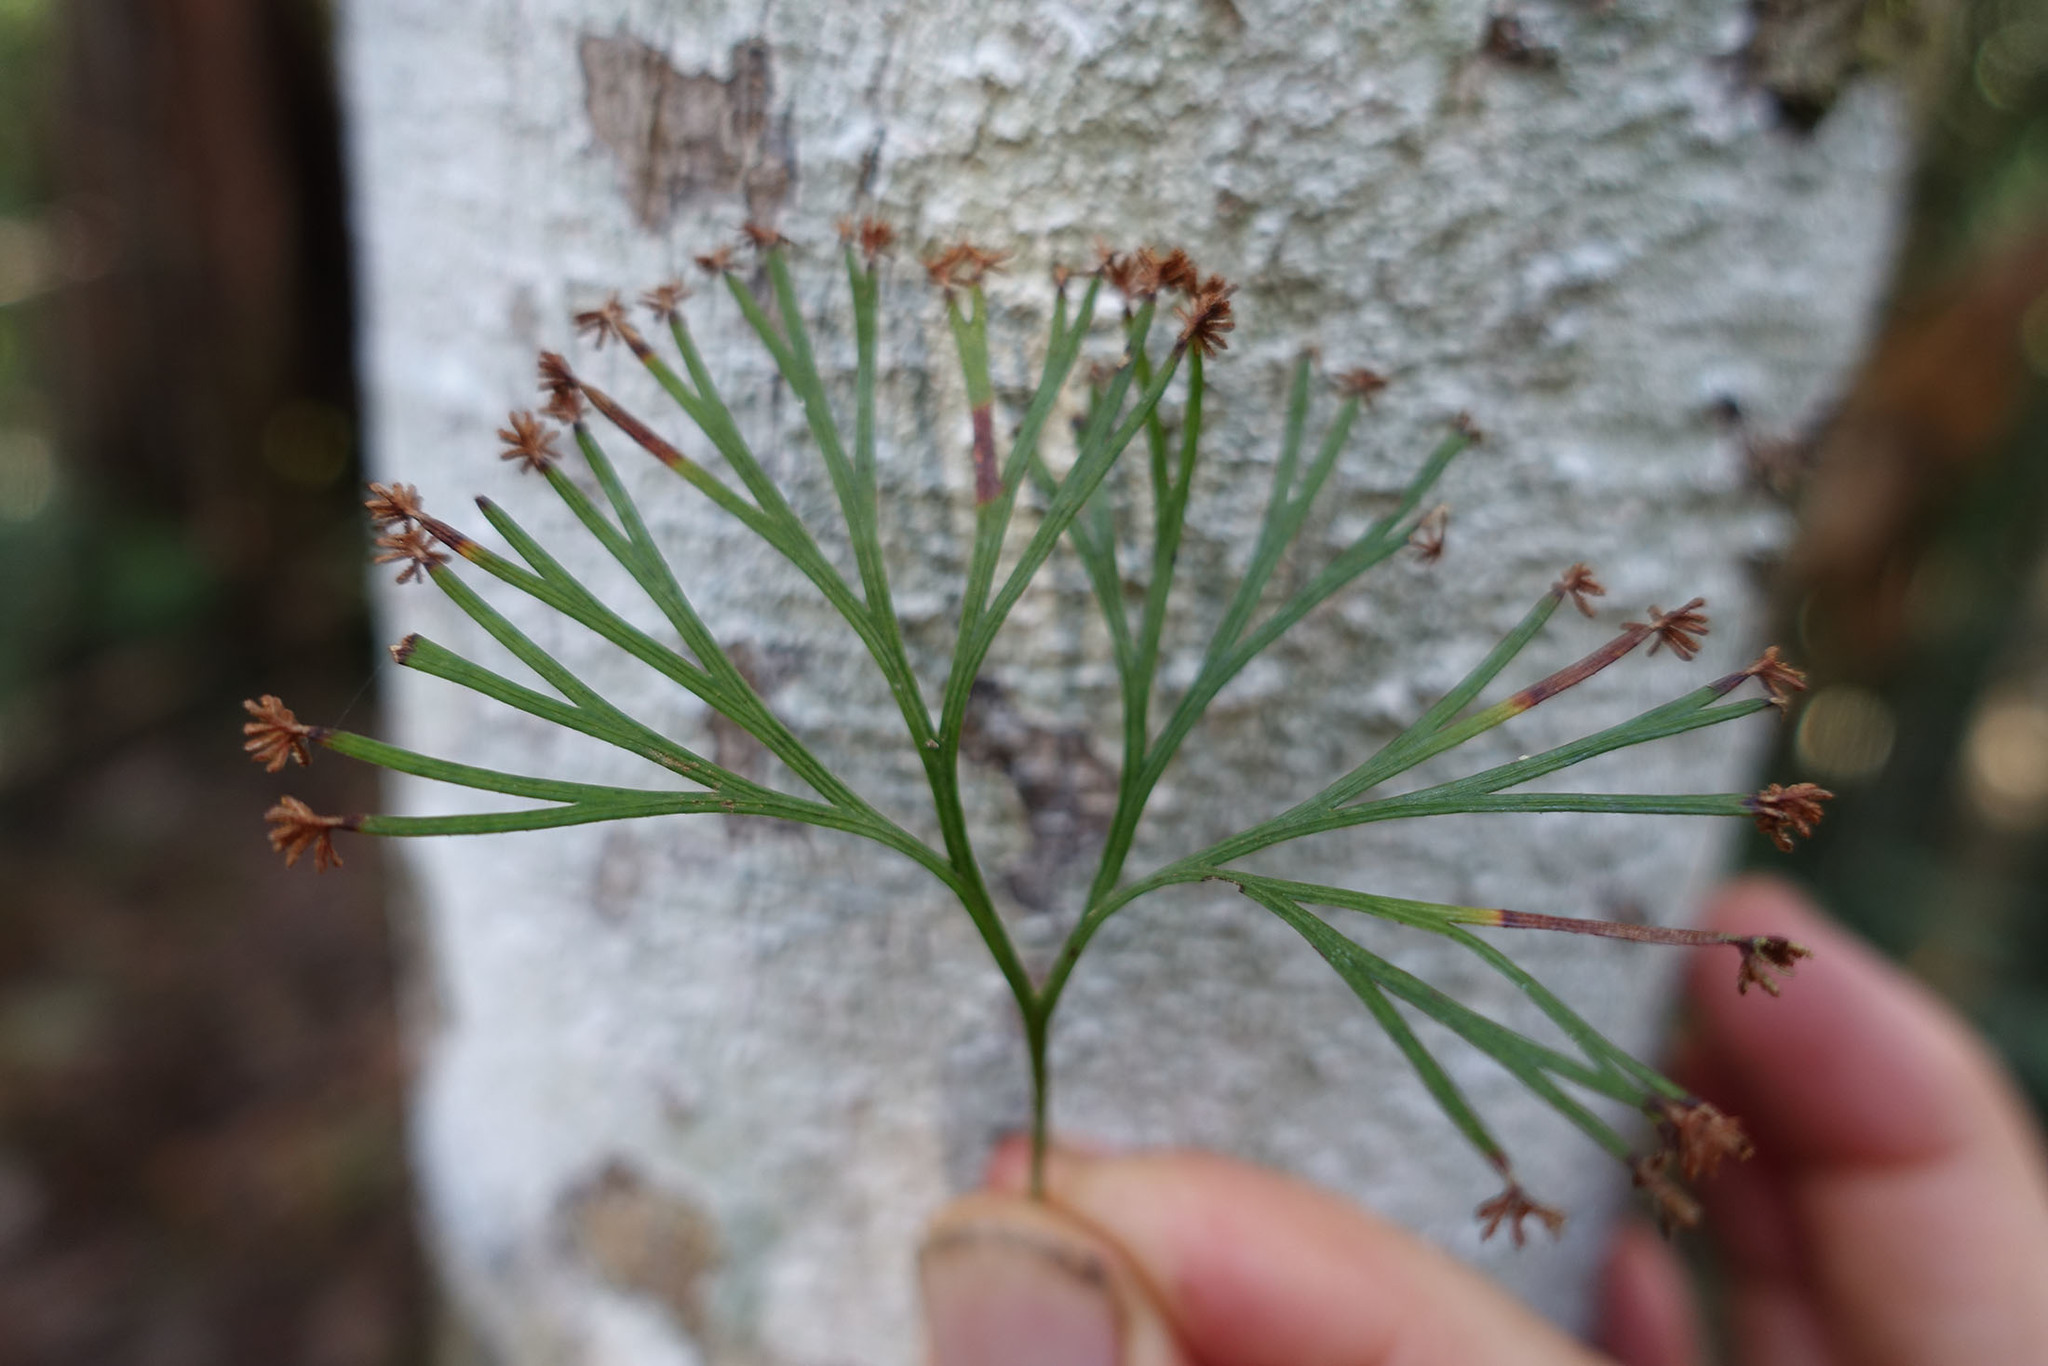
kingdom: Plantae
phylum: Tracheophyta
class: Polypodiopsida
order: Schizaeales
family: Schizaeaceae
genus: Schizaea
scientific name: Schizaea dichotoma
